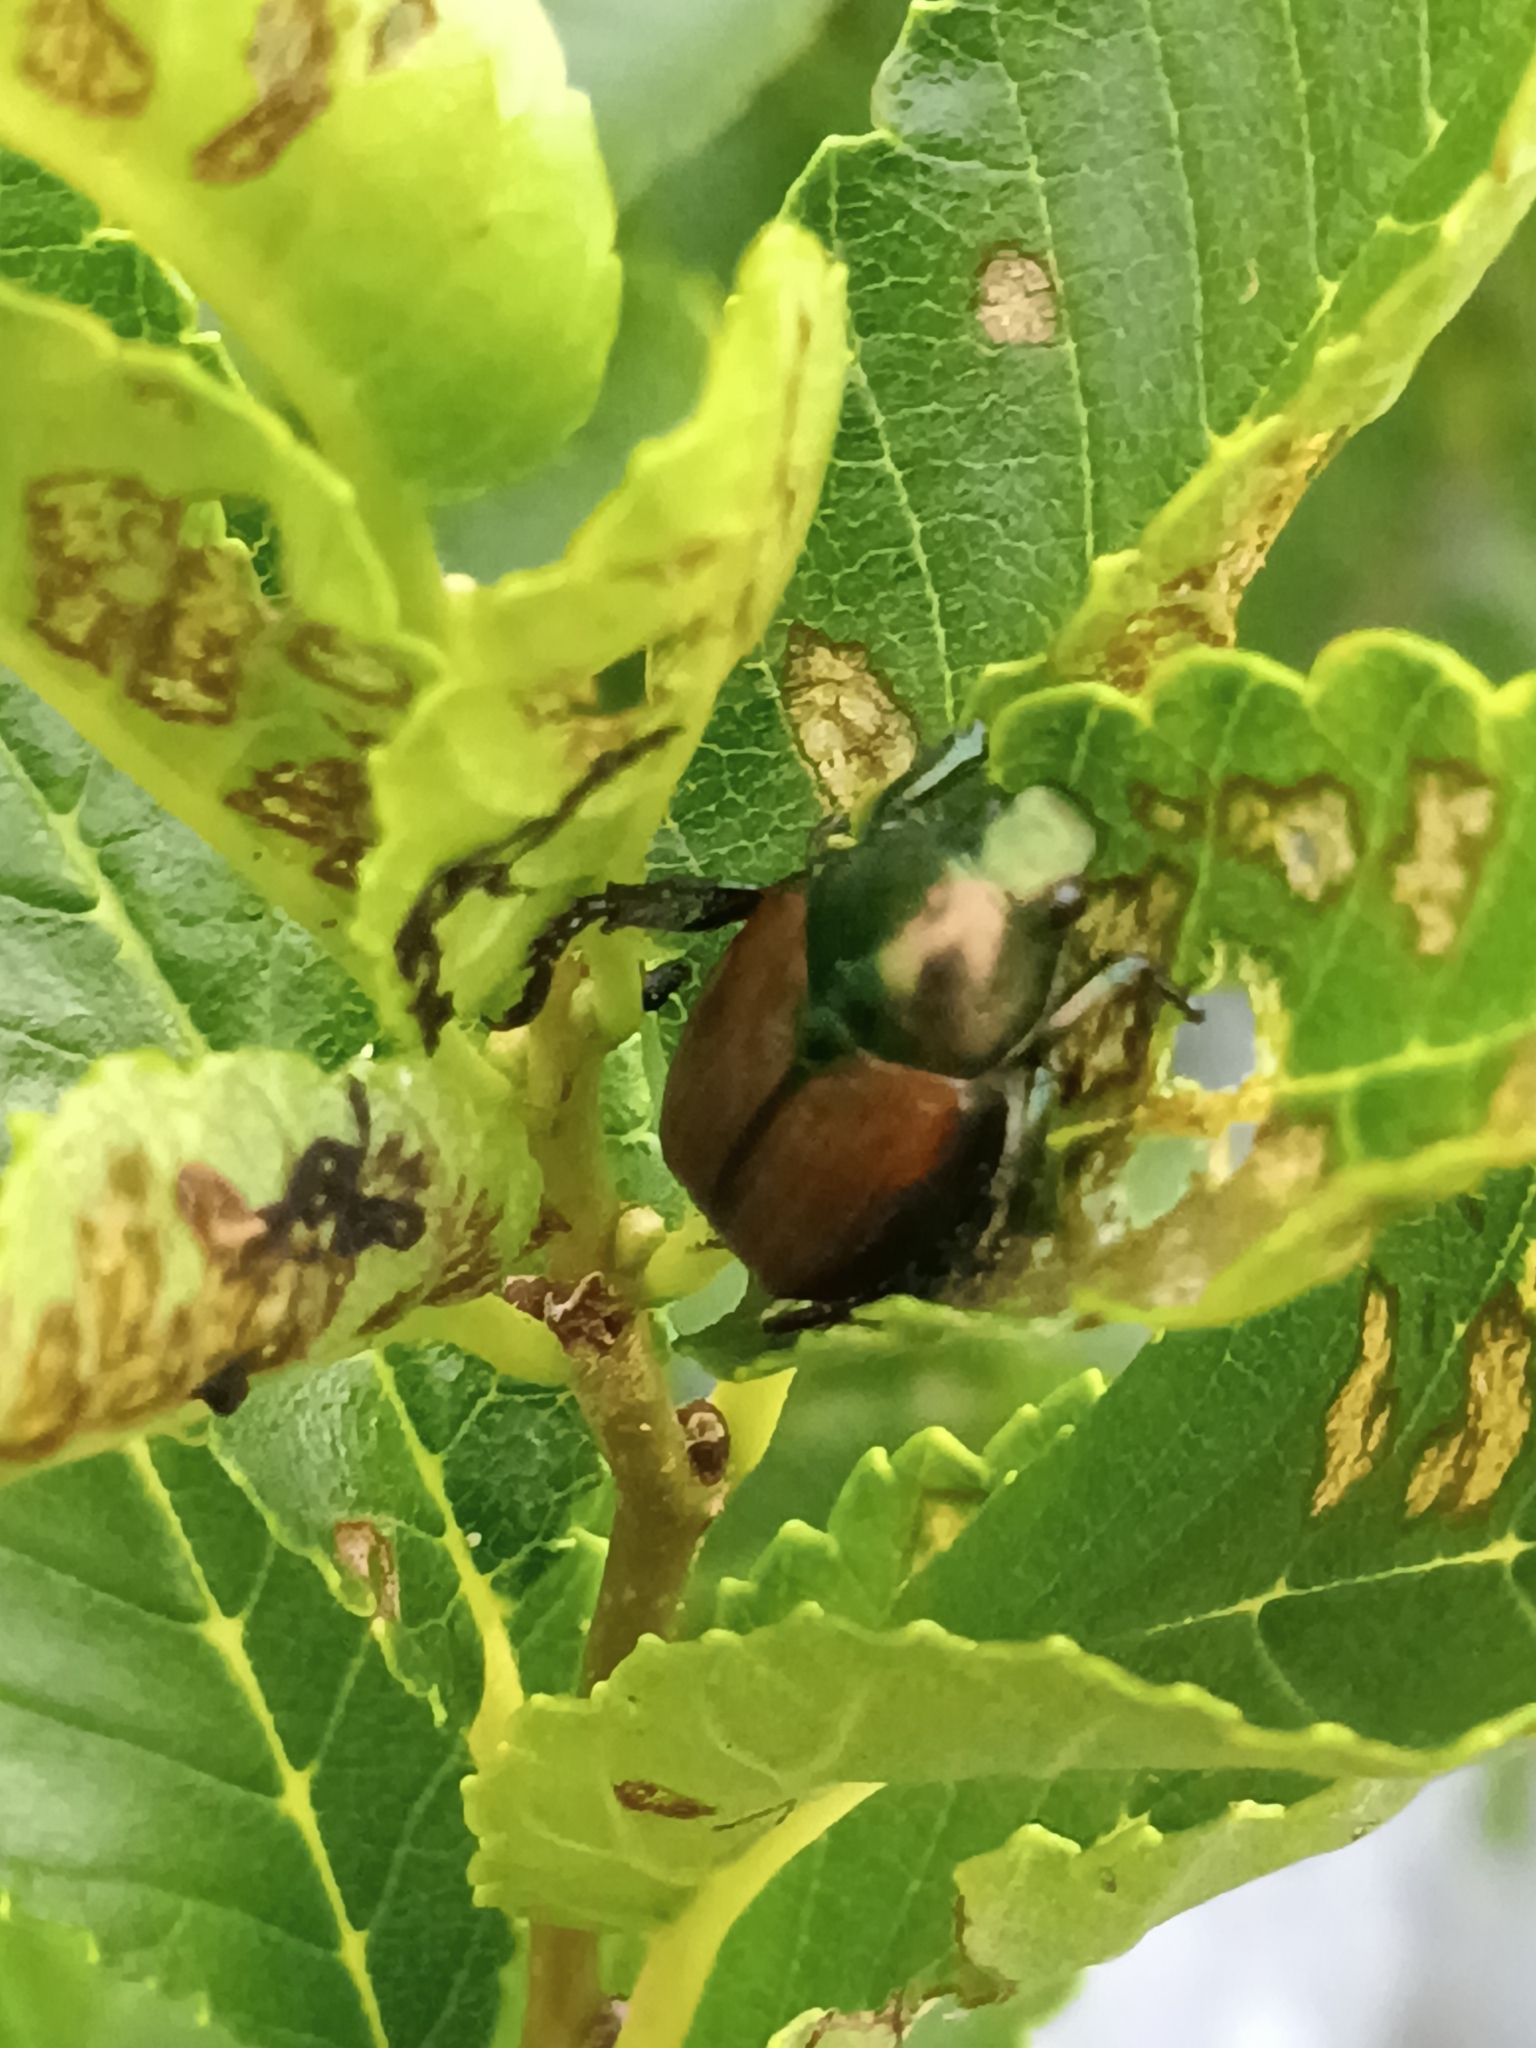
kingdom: Animalia
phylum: Arthropoda
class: Insecta
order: Coleoptera
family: Scarabaeidae
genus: Popillia
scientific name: Popillia japonica
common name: Japanese beetle
